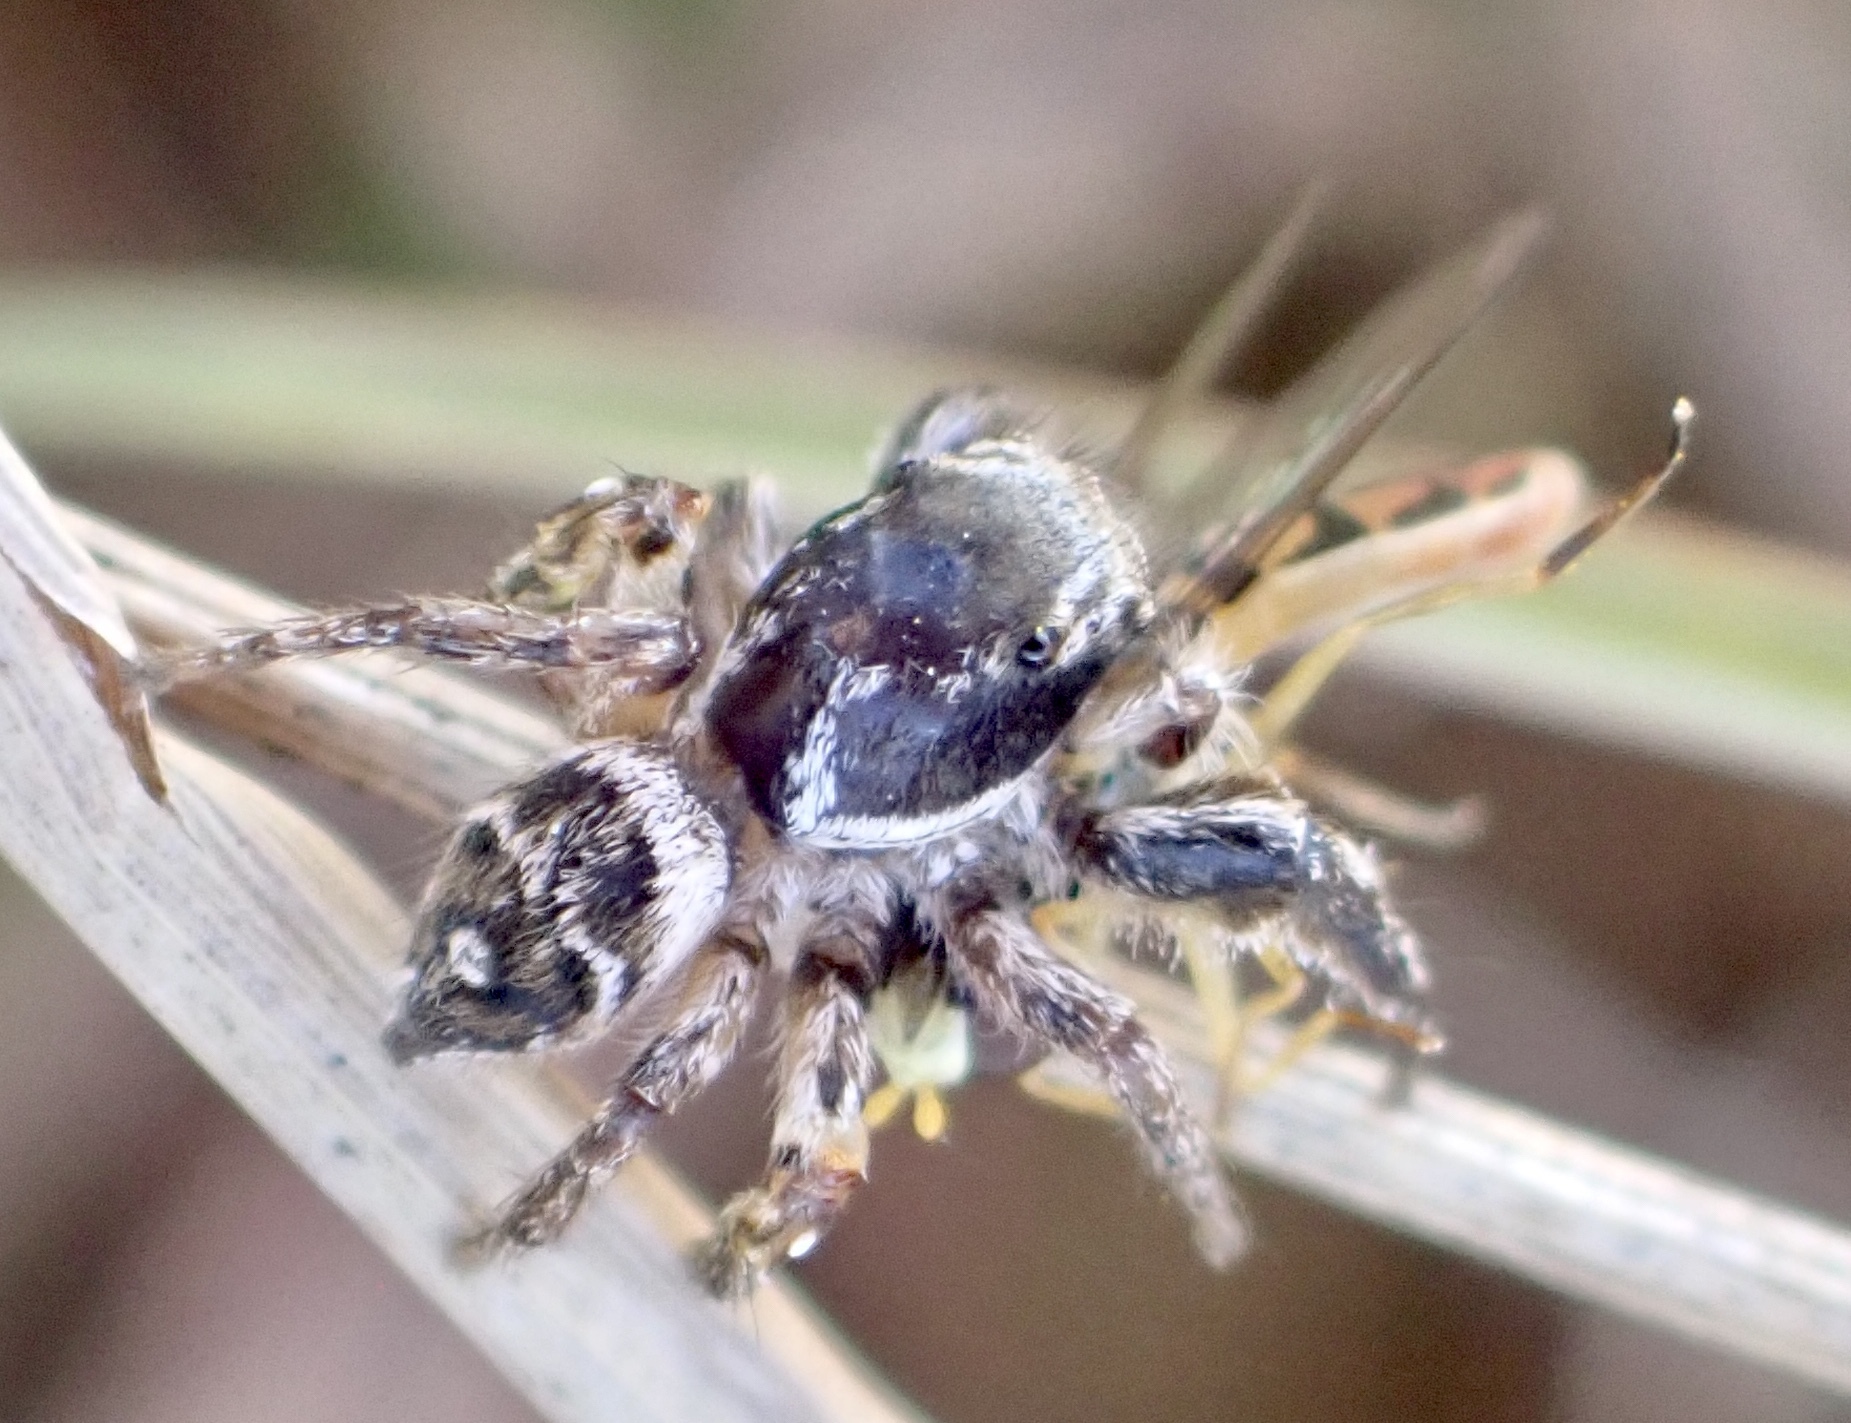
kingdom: Animalia
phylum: Arthropoda
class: Arachnida
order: Araneae
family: Salticidae
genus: Habronattus
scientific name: Habronattus coecatus
